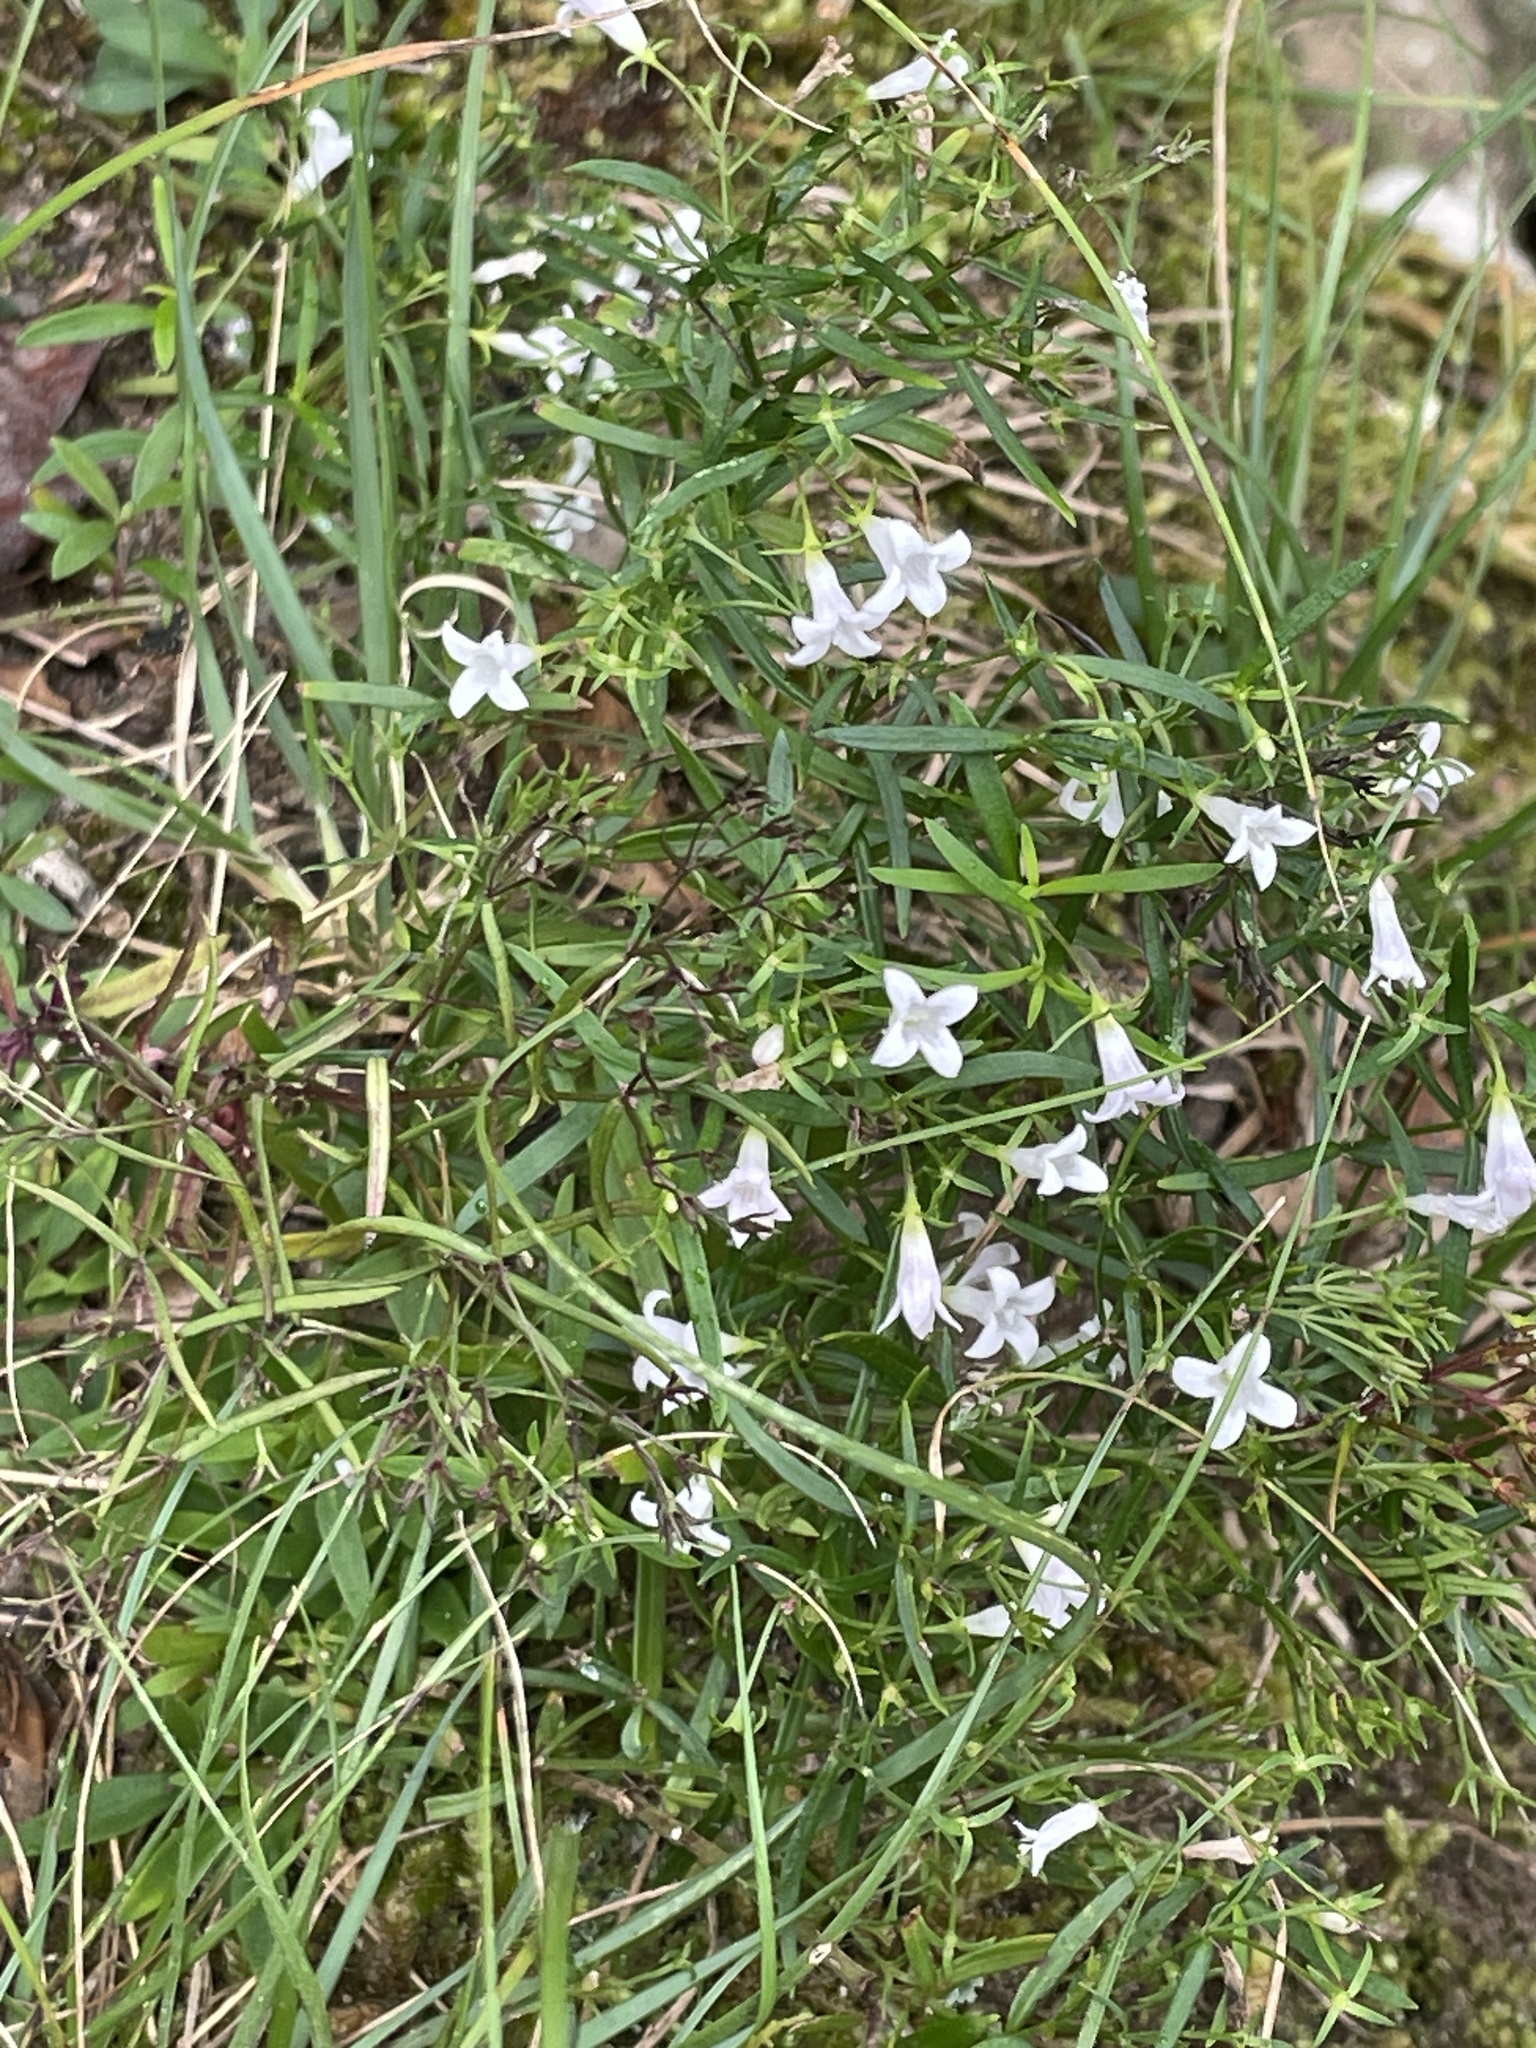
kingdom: Plantae
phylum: Tracheophyta
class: Magnoliopsida
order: Gentianales
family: Rubiaceae
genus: Houstonia
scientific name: Houstonia longifolia
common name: Long-leaved bluets
